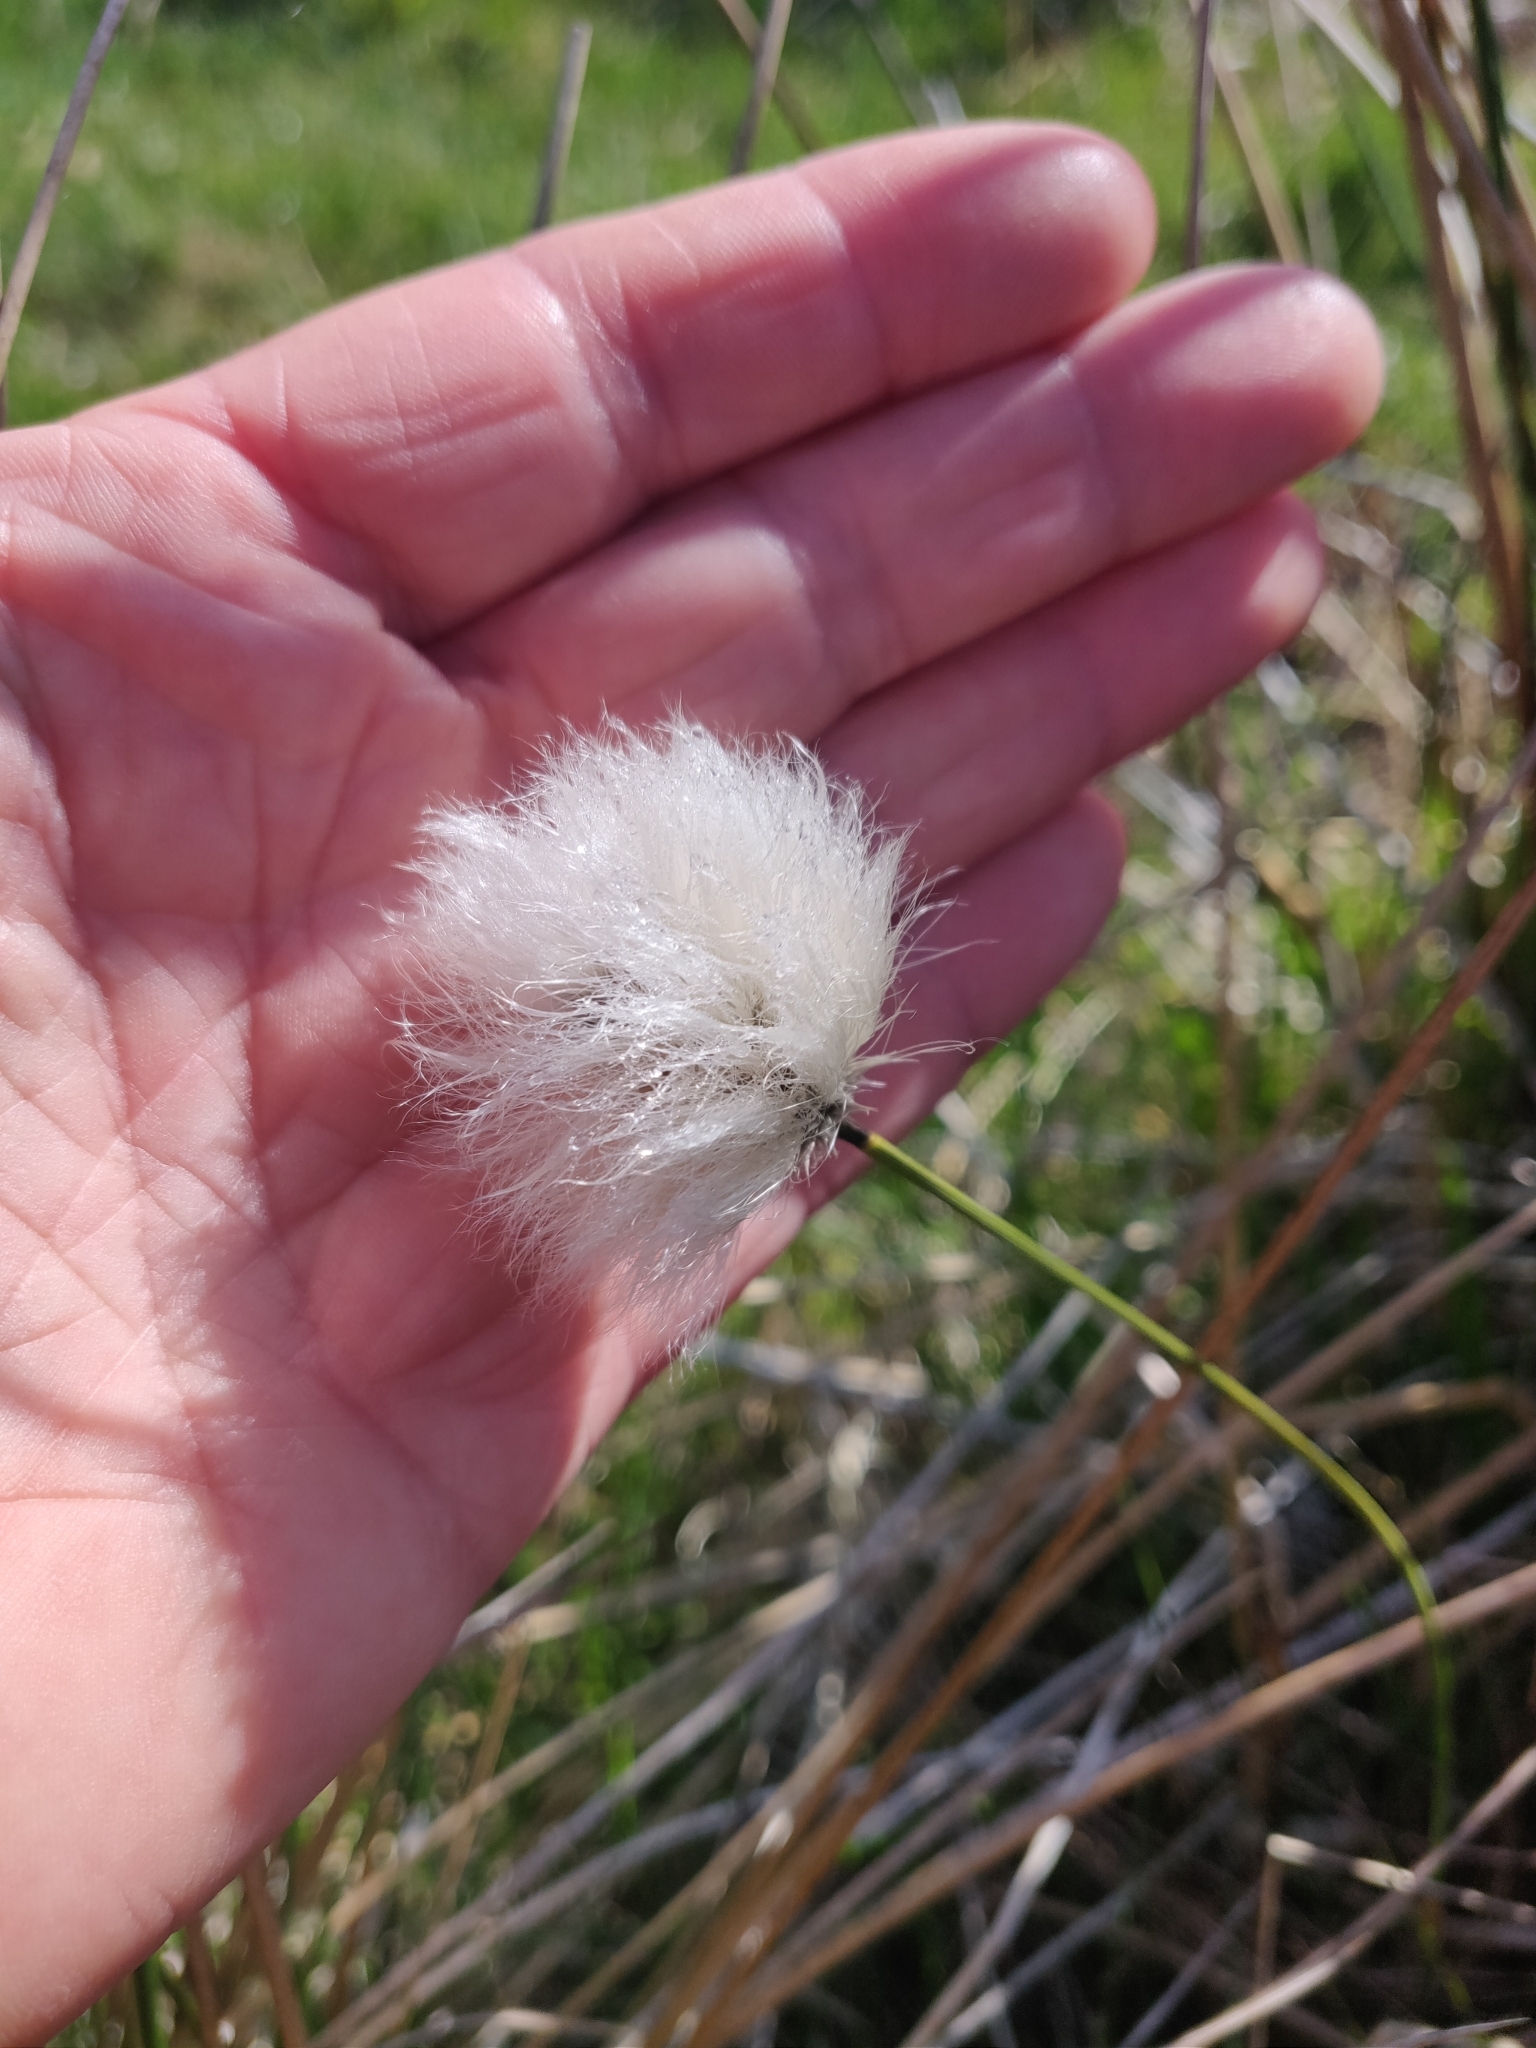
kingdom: Plantae
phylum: Tracheophyta
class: Liliopsida
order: Poales
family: Cyperaceae
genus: Eriophorum
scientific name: Eriophorum vaginatum
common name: Hare's-tail cottongrass
